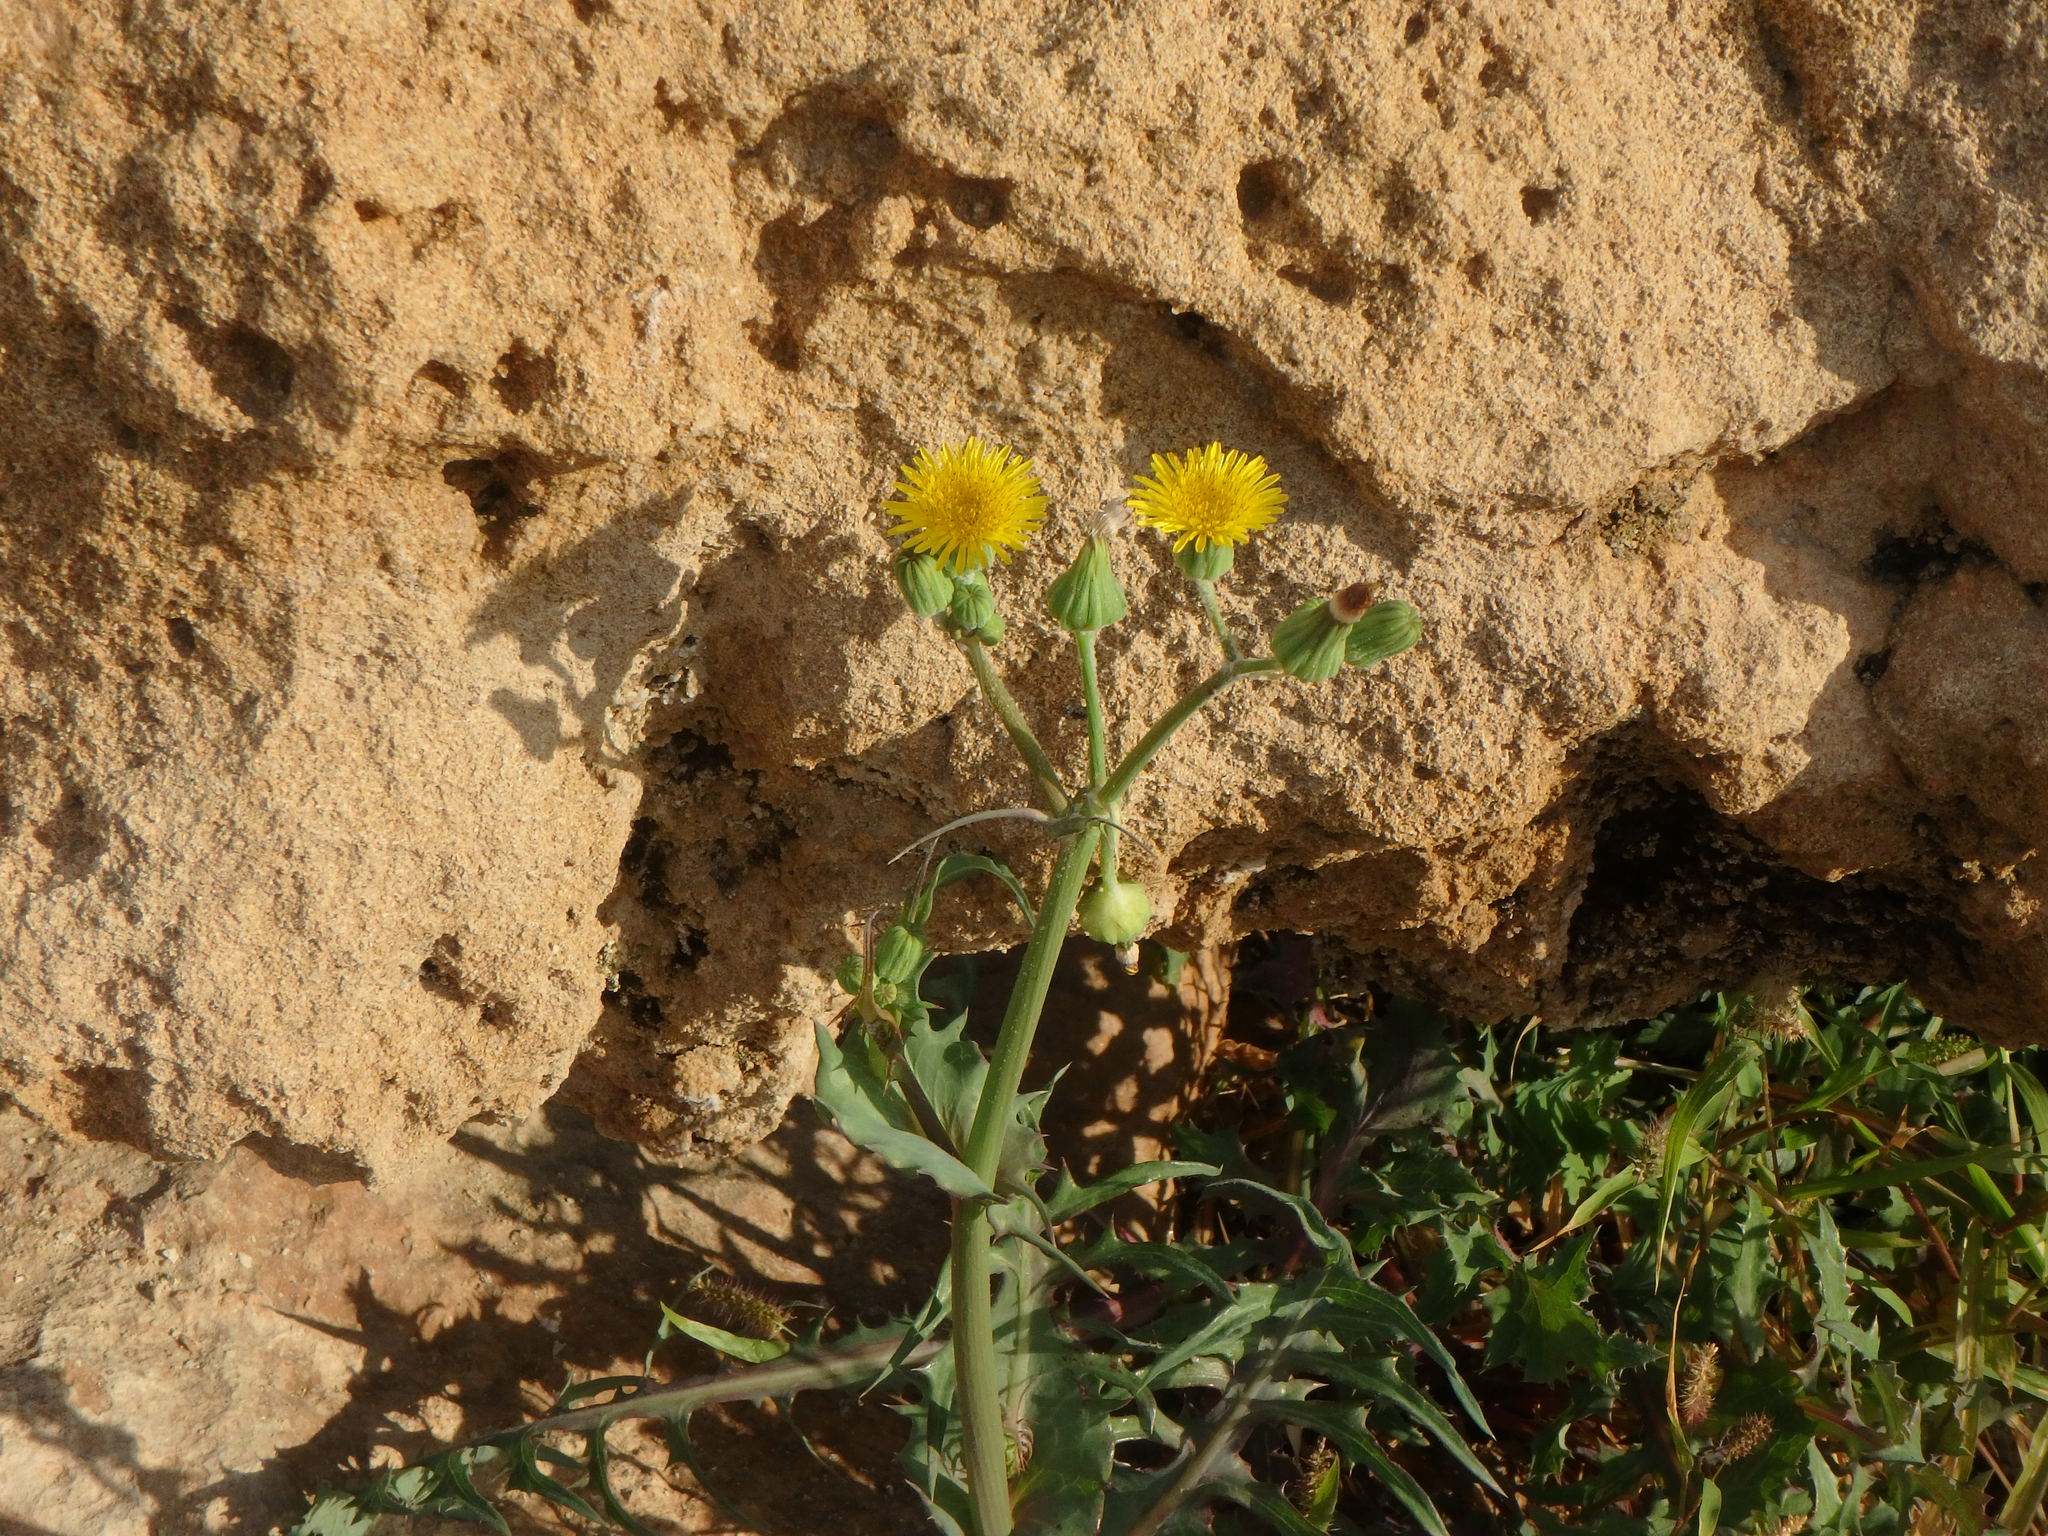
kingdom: Plantae
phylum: Tracheophyta
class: Magnoliopsida
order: Asterales
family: Asteraceae
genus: Sonchus
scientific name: Sonchus oleraceus
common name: Common sowthistle
